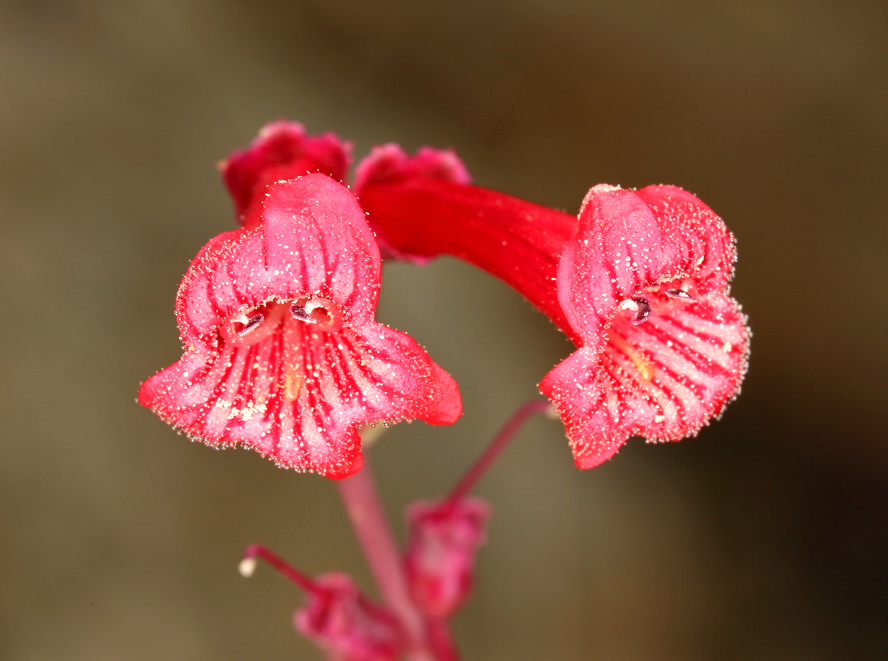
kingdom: Plantae
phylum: Tracheophyta
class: Magnoliopsida
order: Lamiales
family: Plantaginaceae
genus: Penstemon
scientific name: Penstemon utahensis
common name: Utah penstemon
